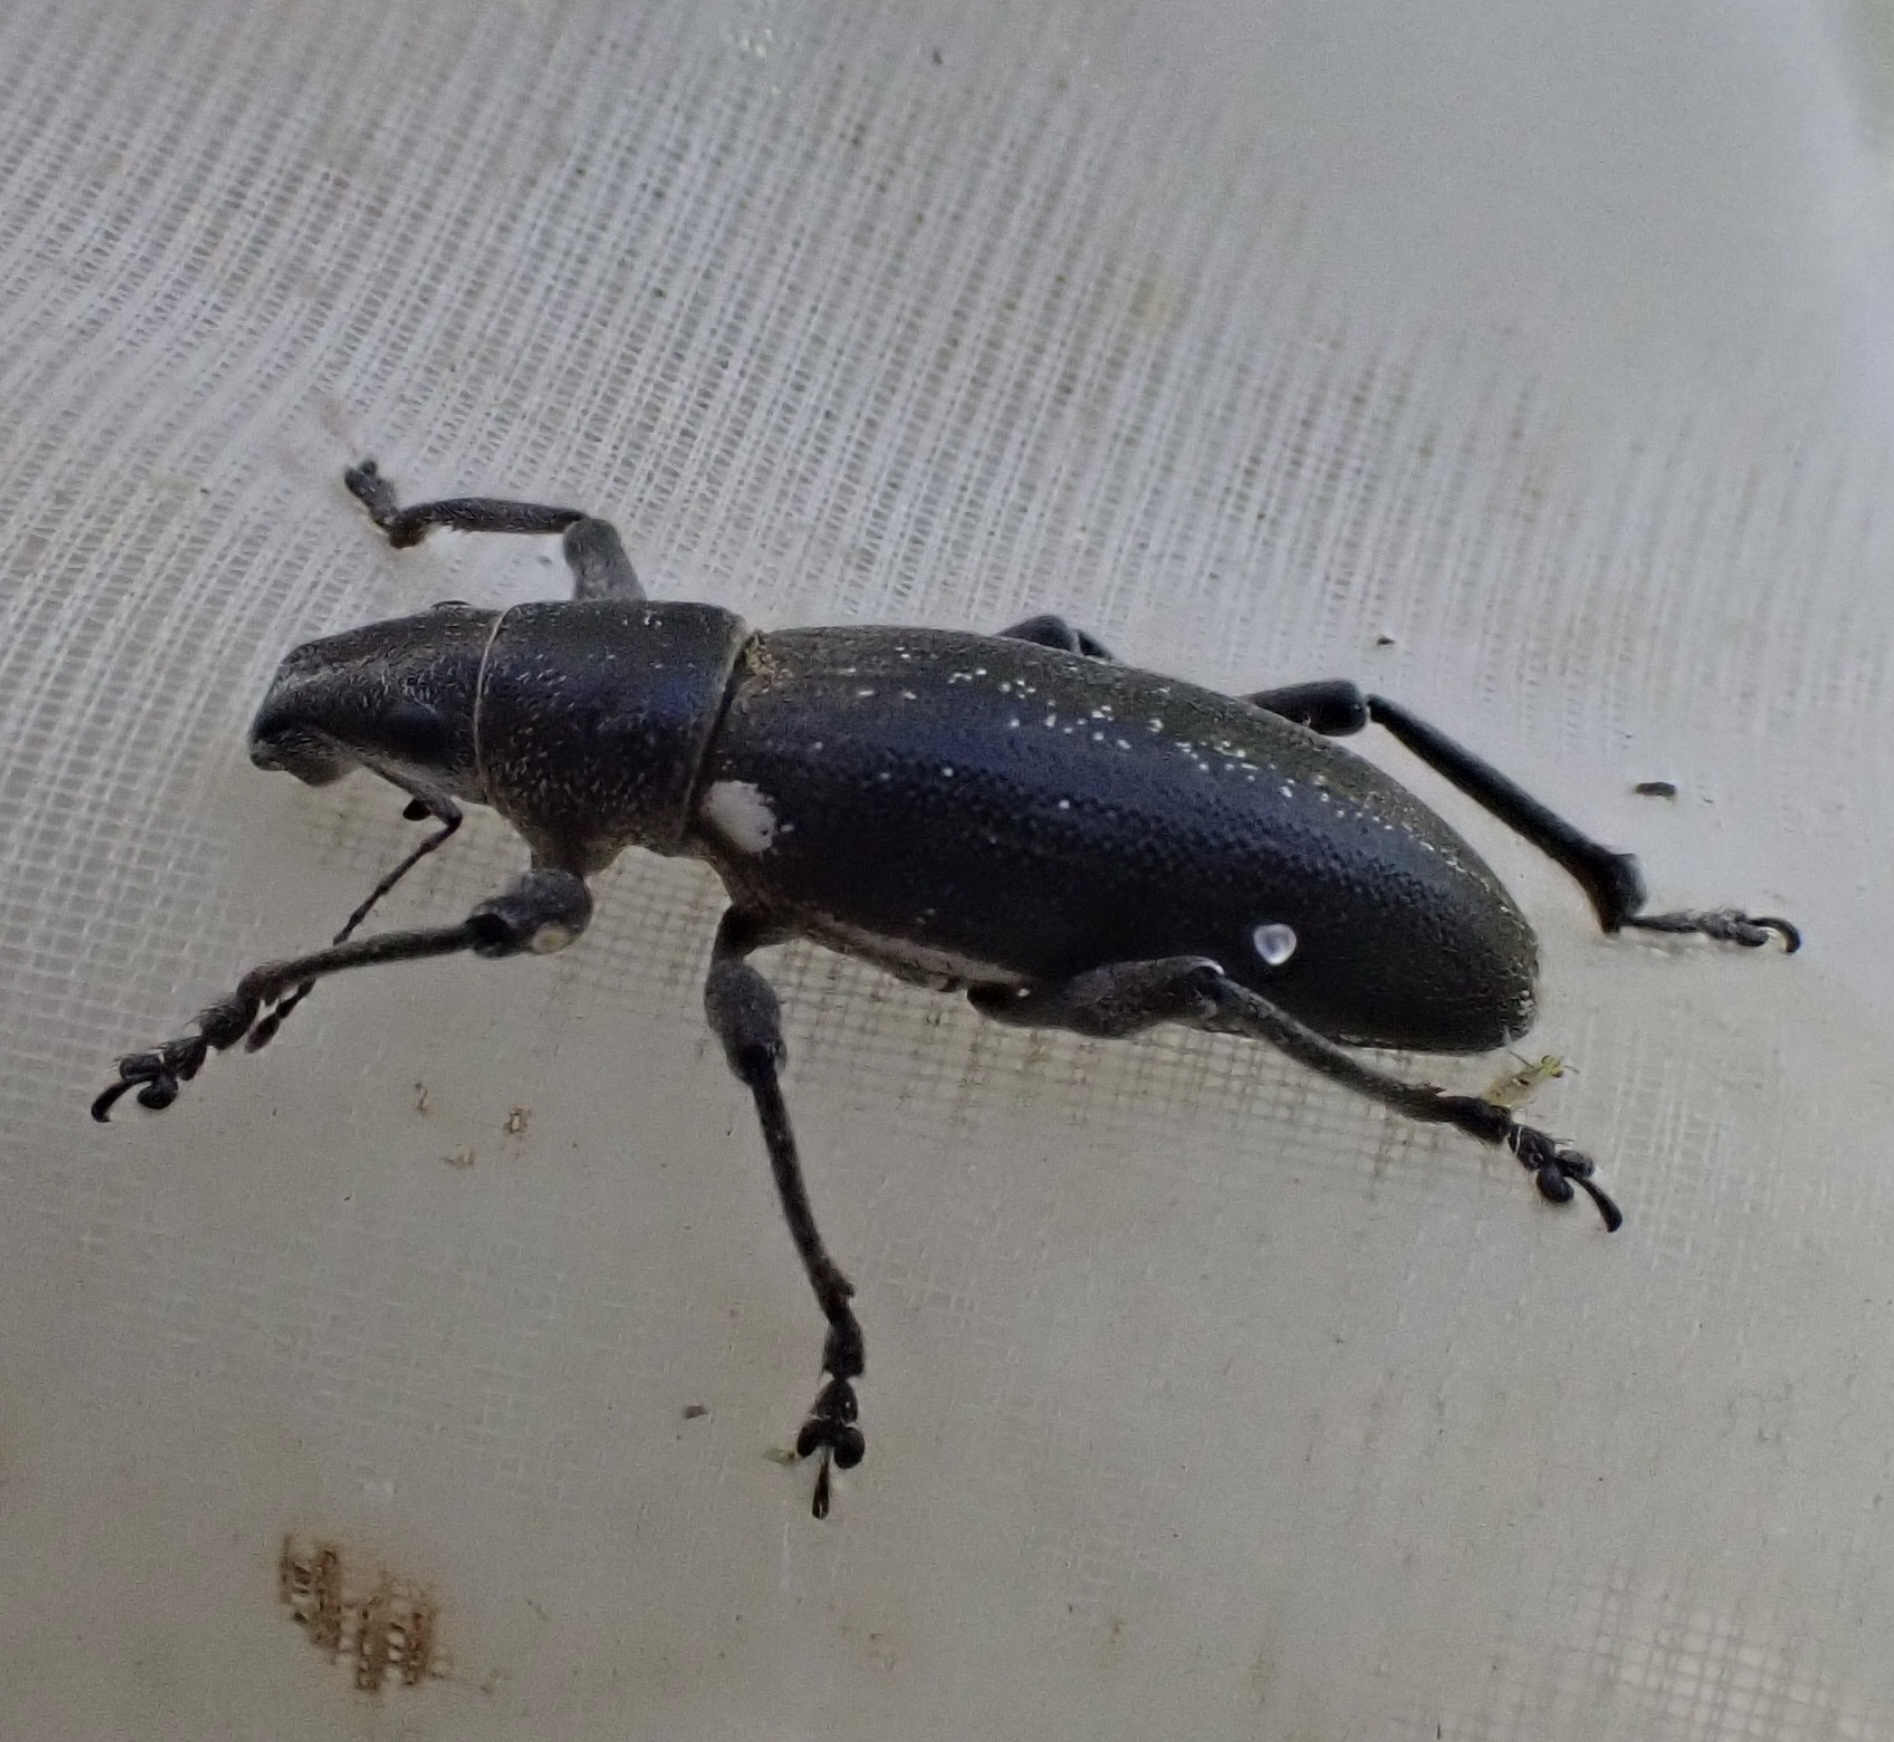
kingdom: Animalia
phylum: Arthropoda
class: Insecta
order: Coleoptera
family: Curculionidae
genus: Brachyderes
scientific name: Brachyderes lusitanicus
